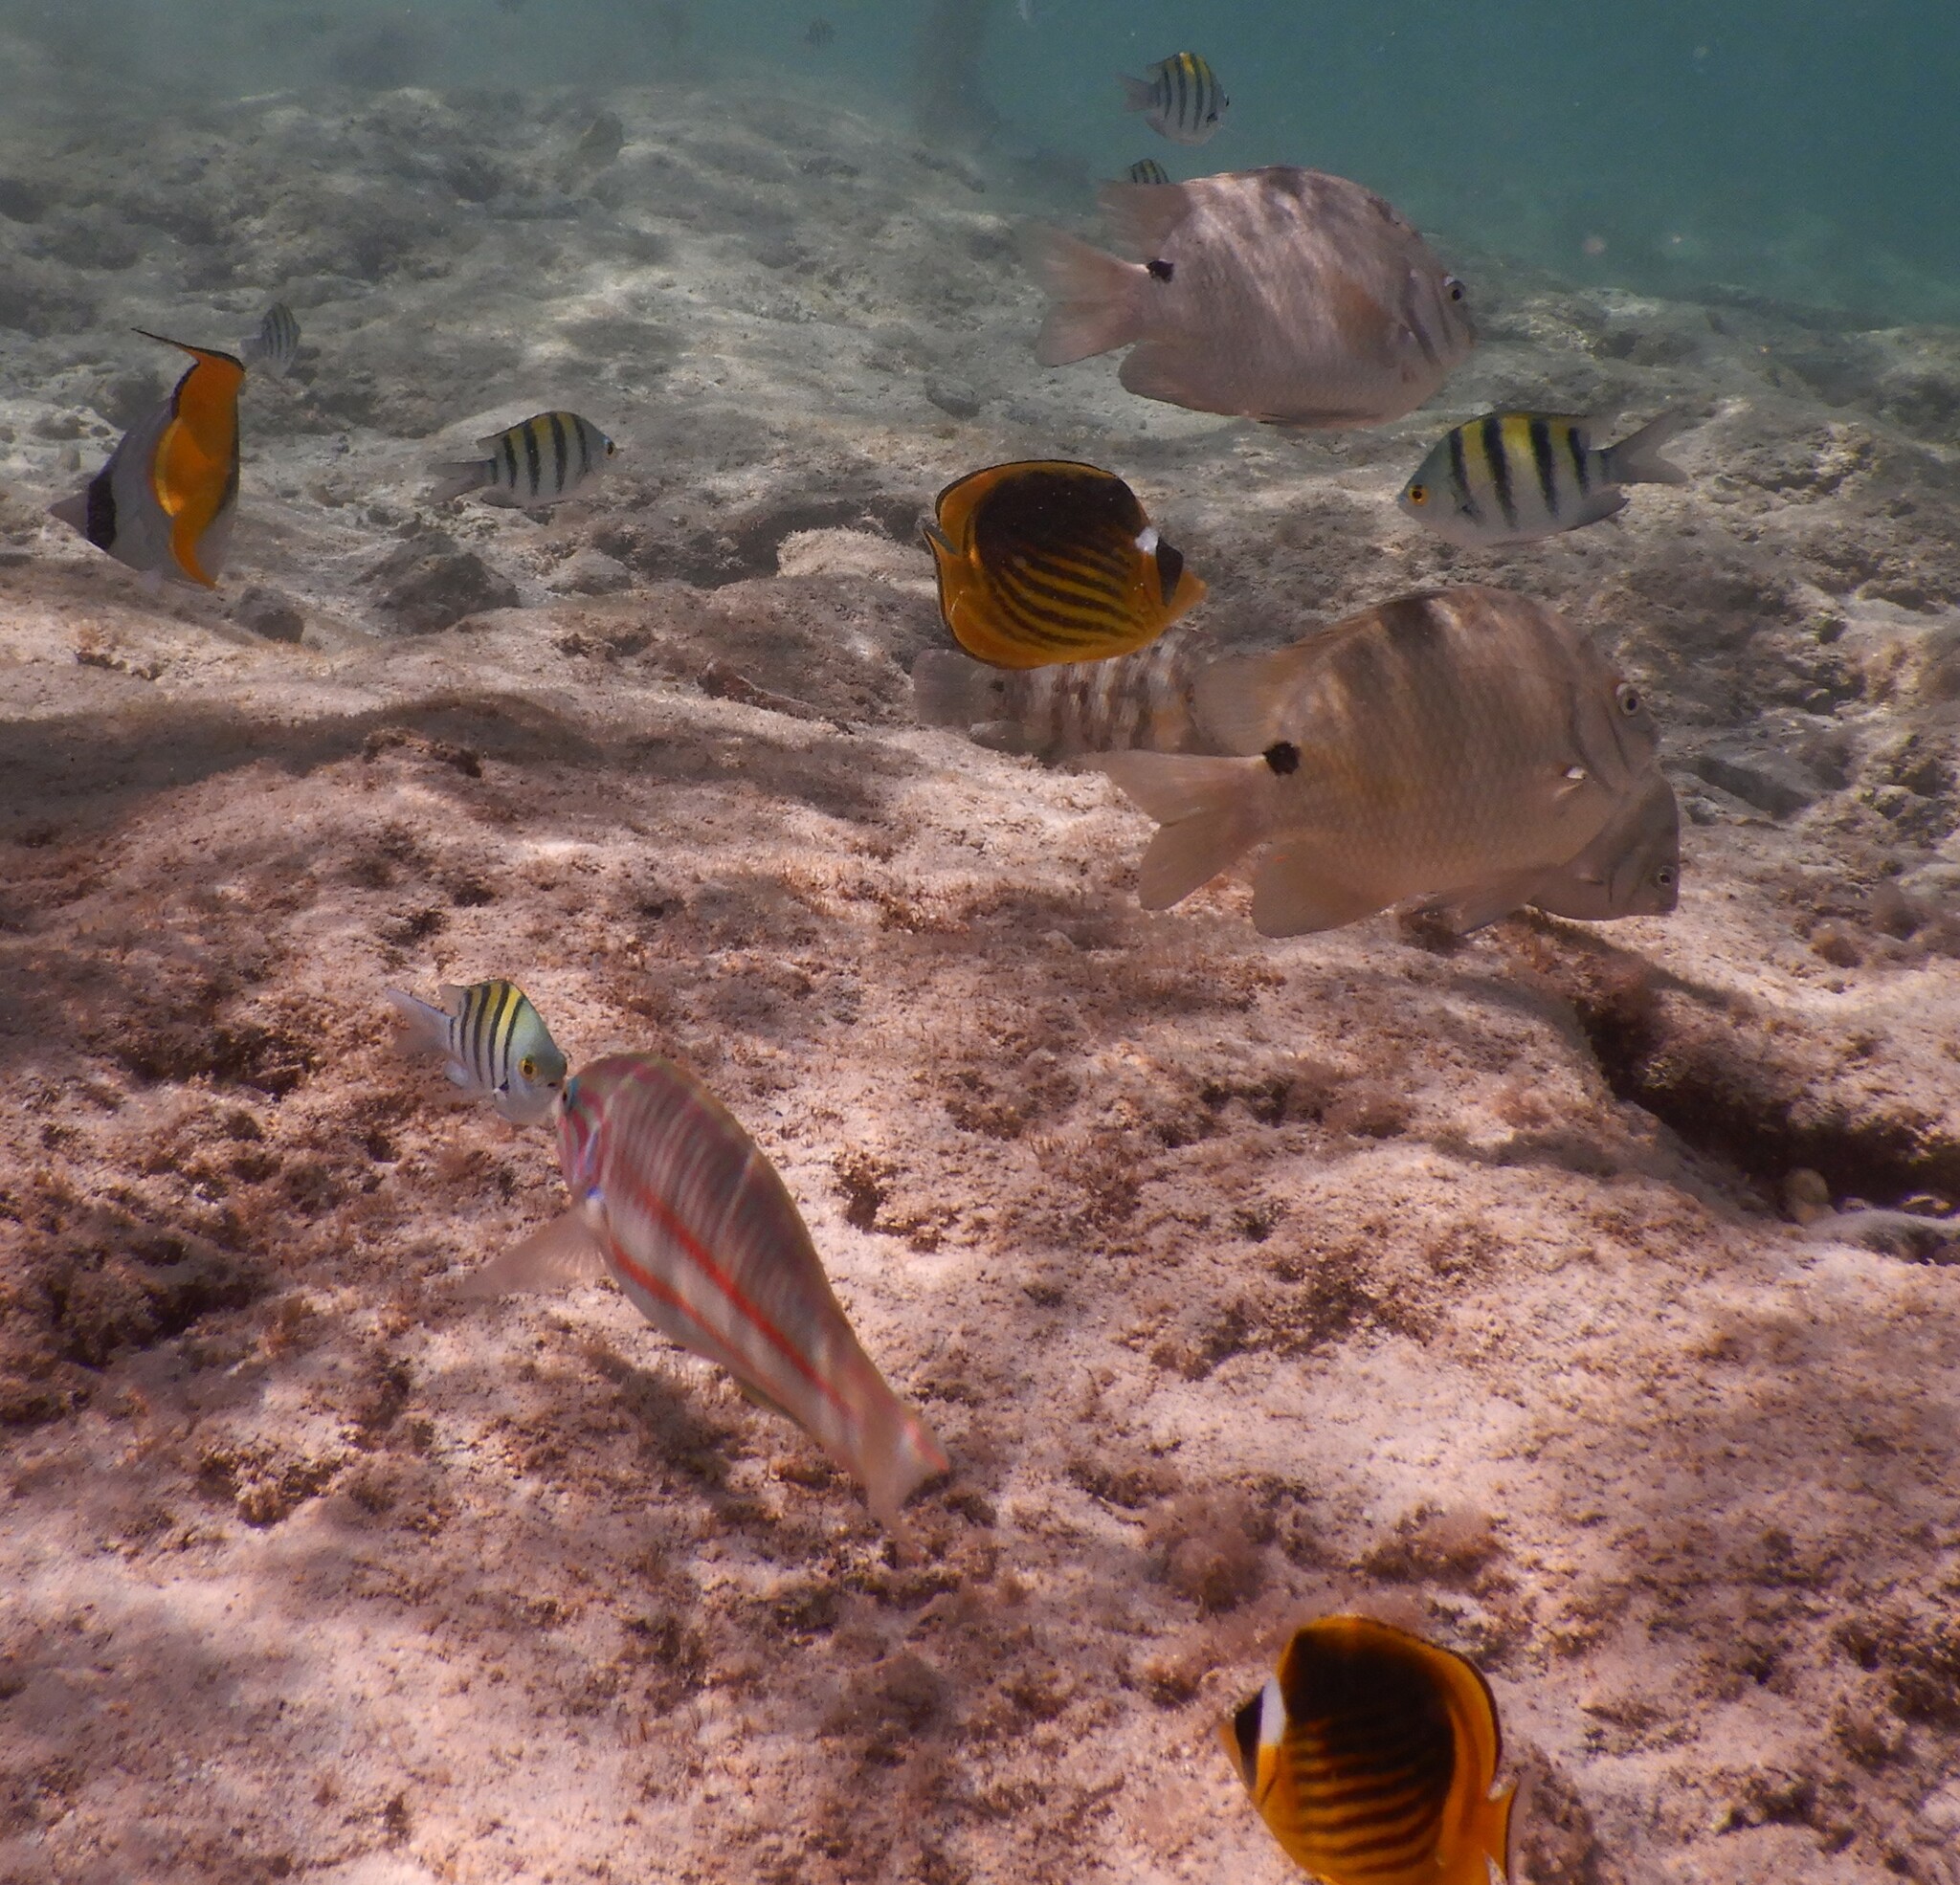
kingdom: Animalia
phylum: Chordata
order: Perciformes
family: Chaetodontidae
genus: Chaetodon
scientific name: Chaetodon auriga
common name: Threadfin butterflyfish
